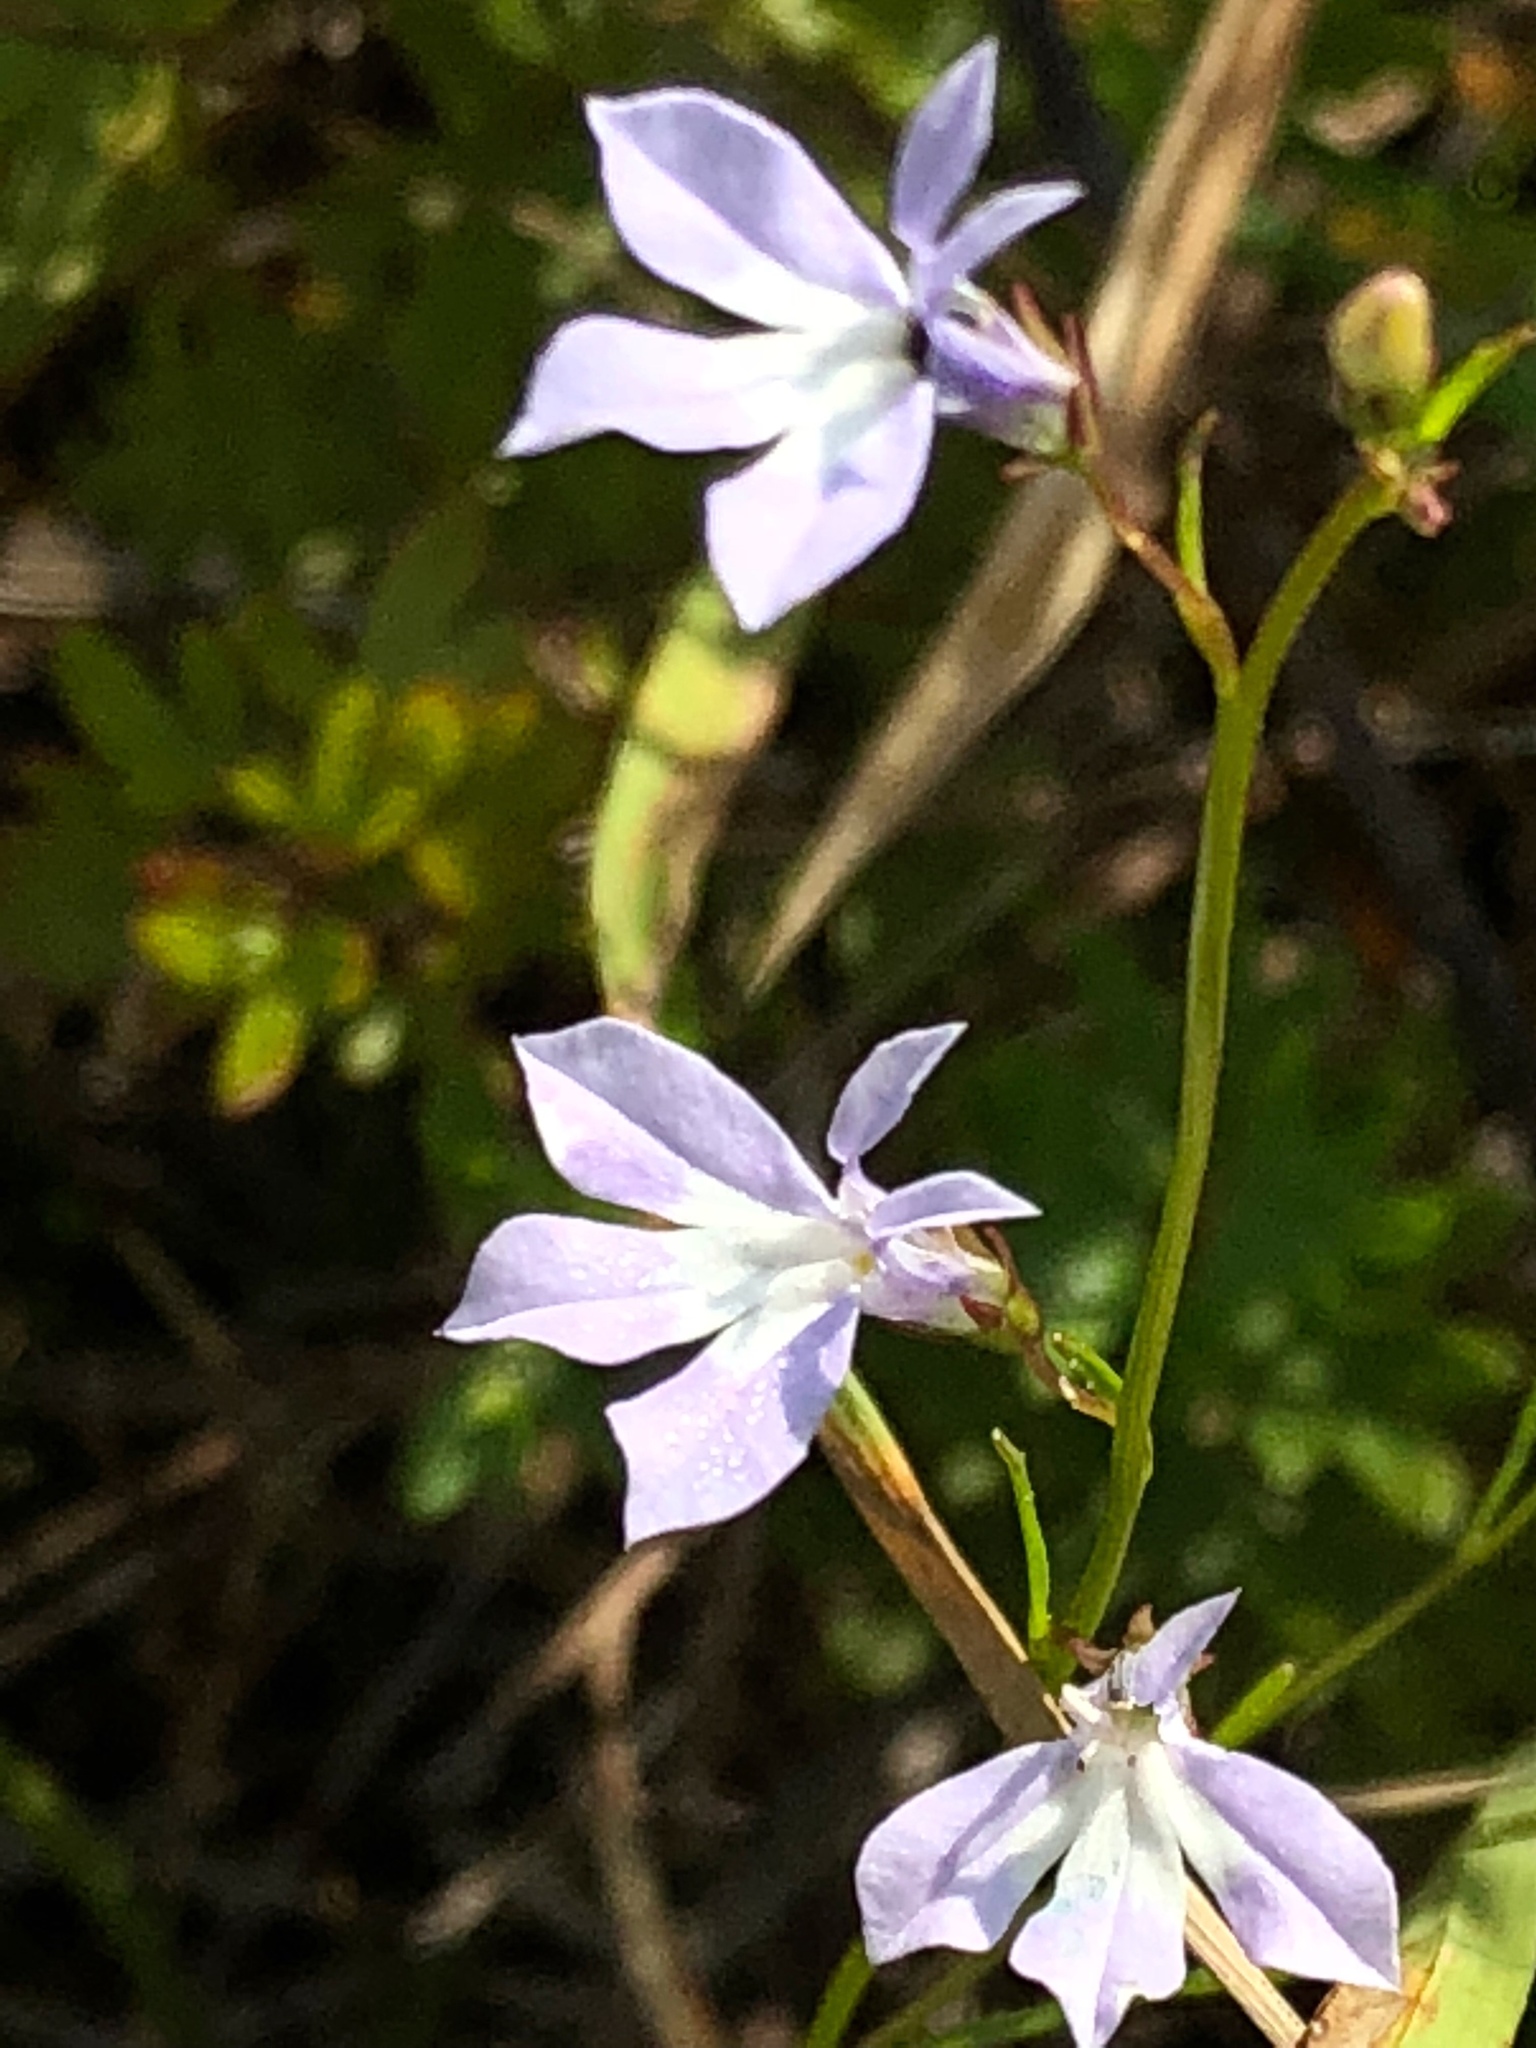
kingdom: Plantae
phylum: Tracheophyta
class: Magnoliopsida
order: Asterales
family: Campanulaceae
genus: Lobelia
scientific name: Lobelia kalmii
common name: Kalm's lobelia
